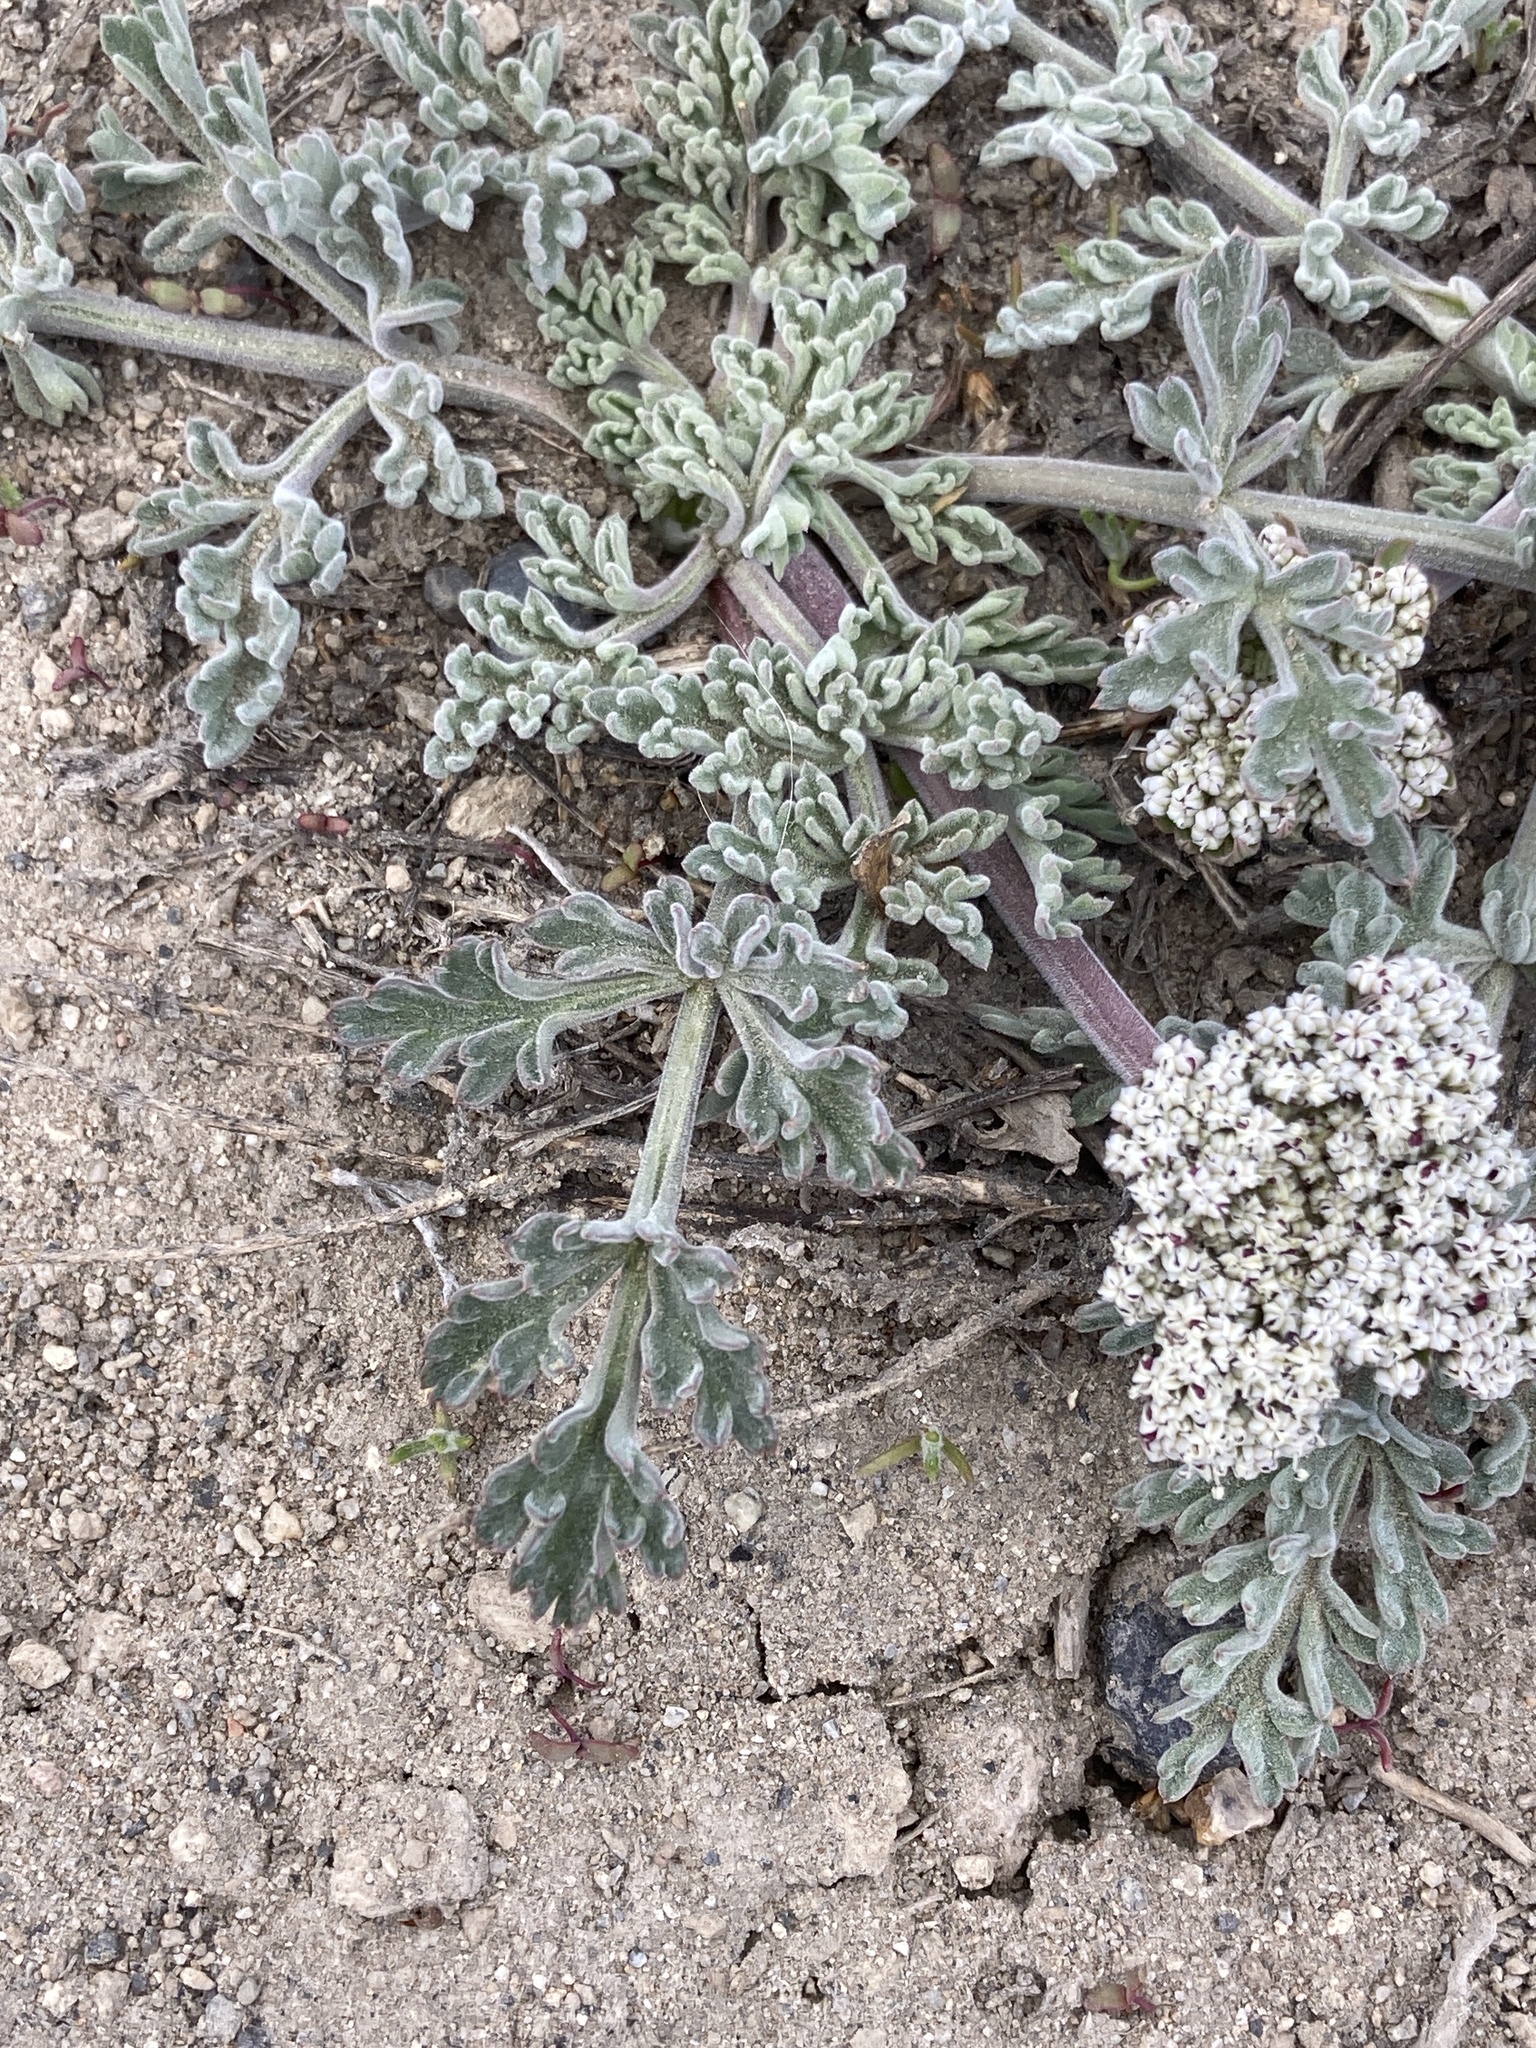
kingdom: Plantae
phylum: Tracheophyta
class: Magnoliopsida
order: Apiales
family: Apiaceae
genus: Lomatium
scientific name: Lomatium nevadense
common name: Nevada lomatium
